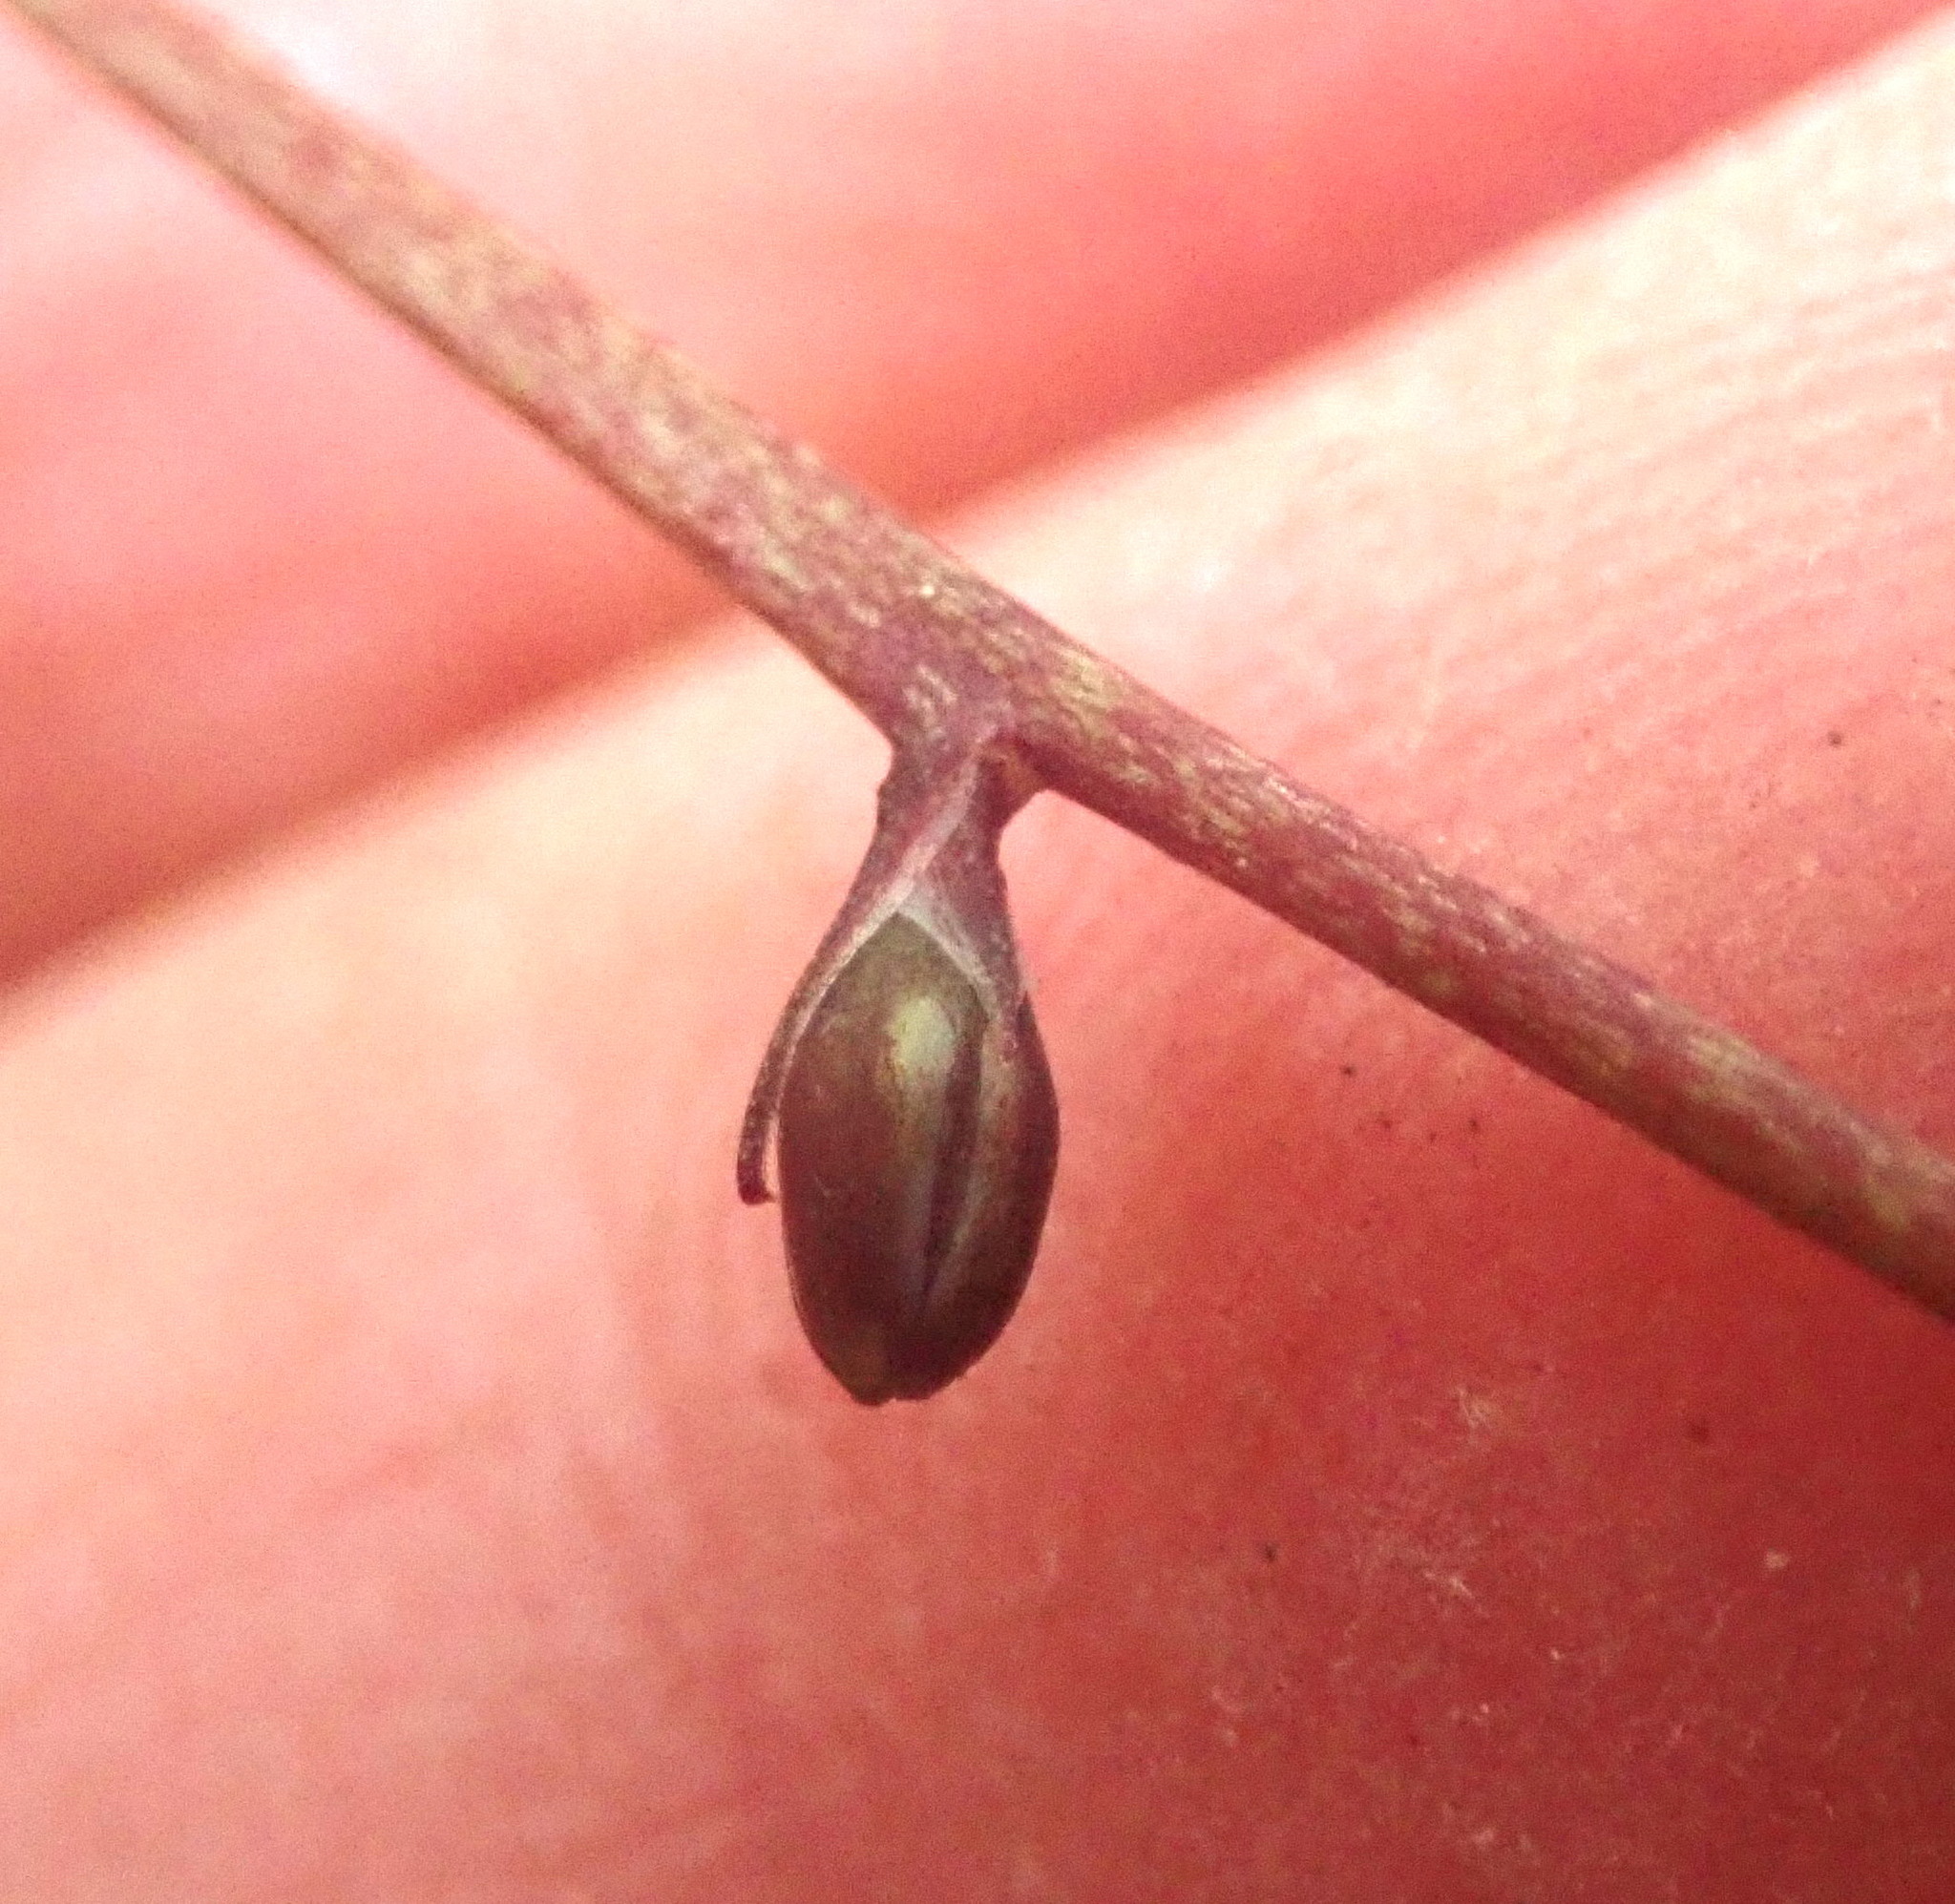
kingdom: Plantae
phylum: Tracheophyta
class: Liliopsida
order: Asparagales
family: Asparagaceae
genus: Cordyline
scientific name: Cordyline pumilio
